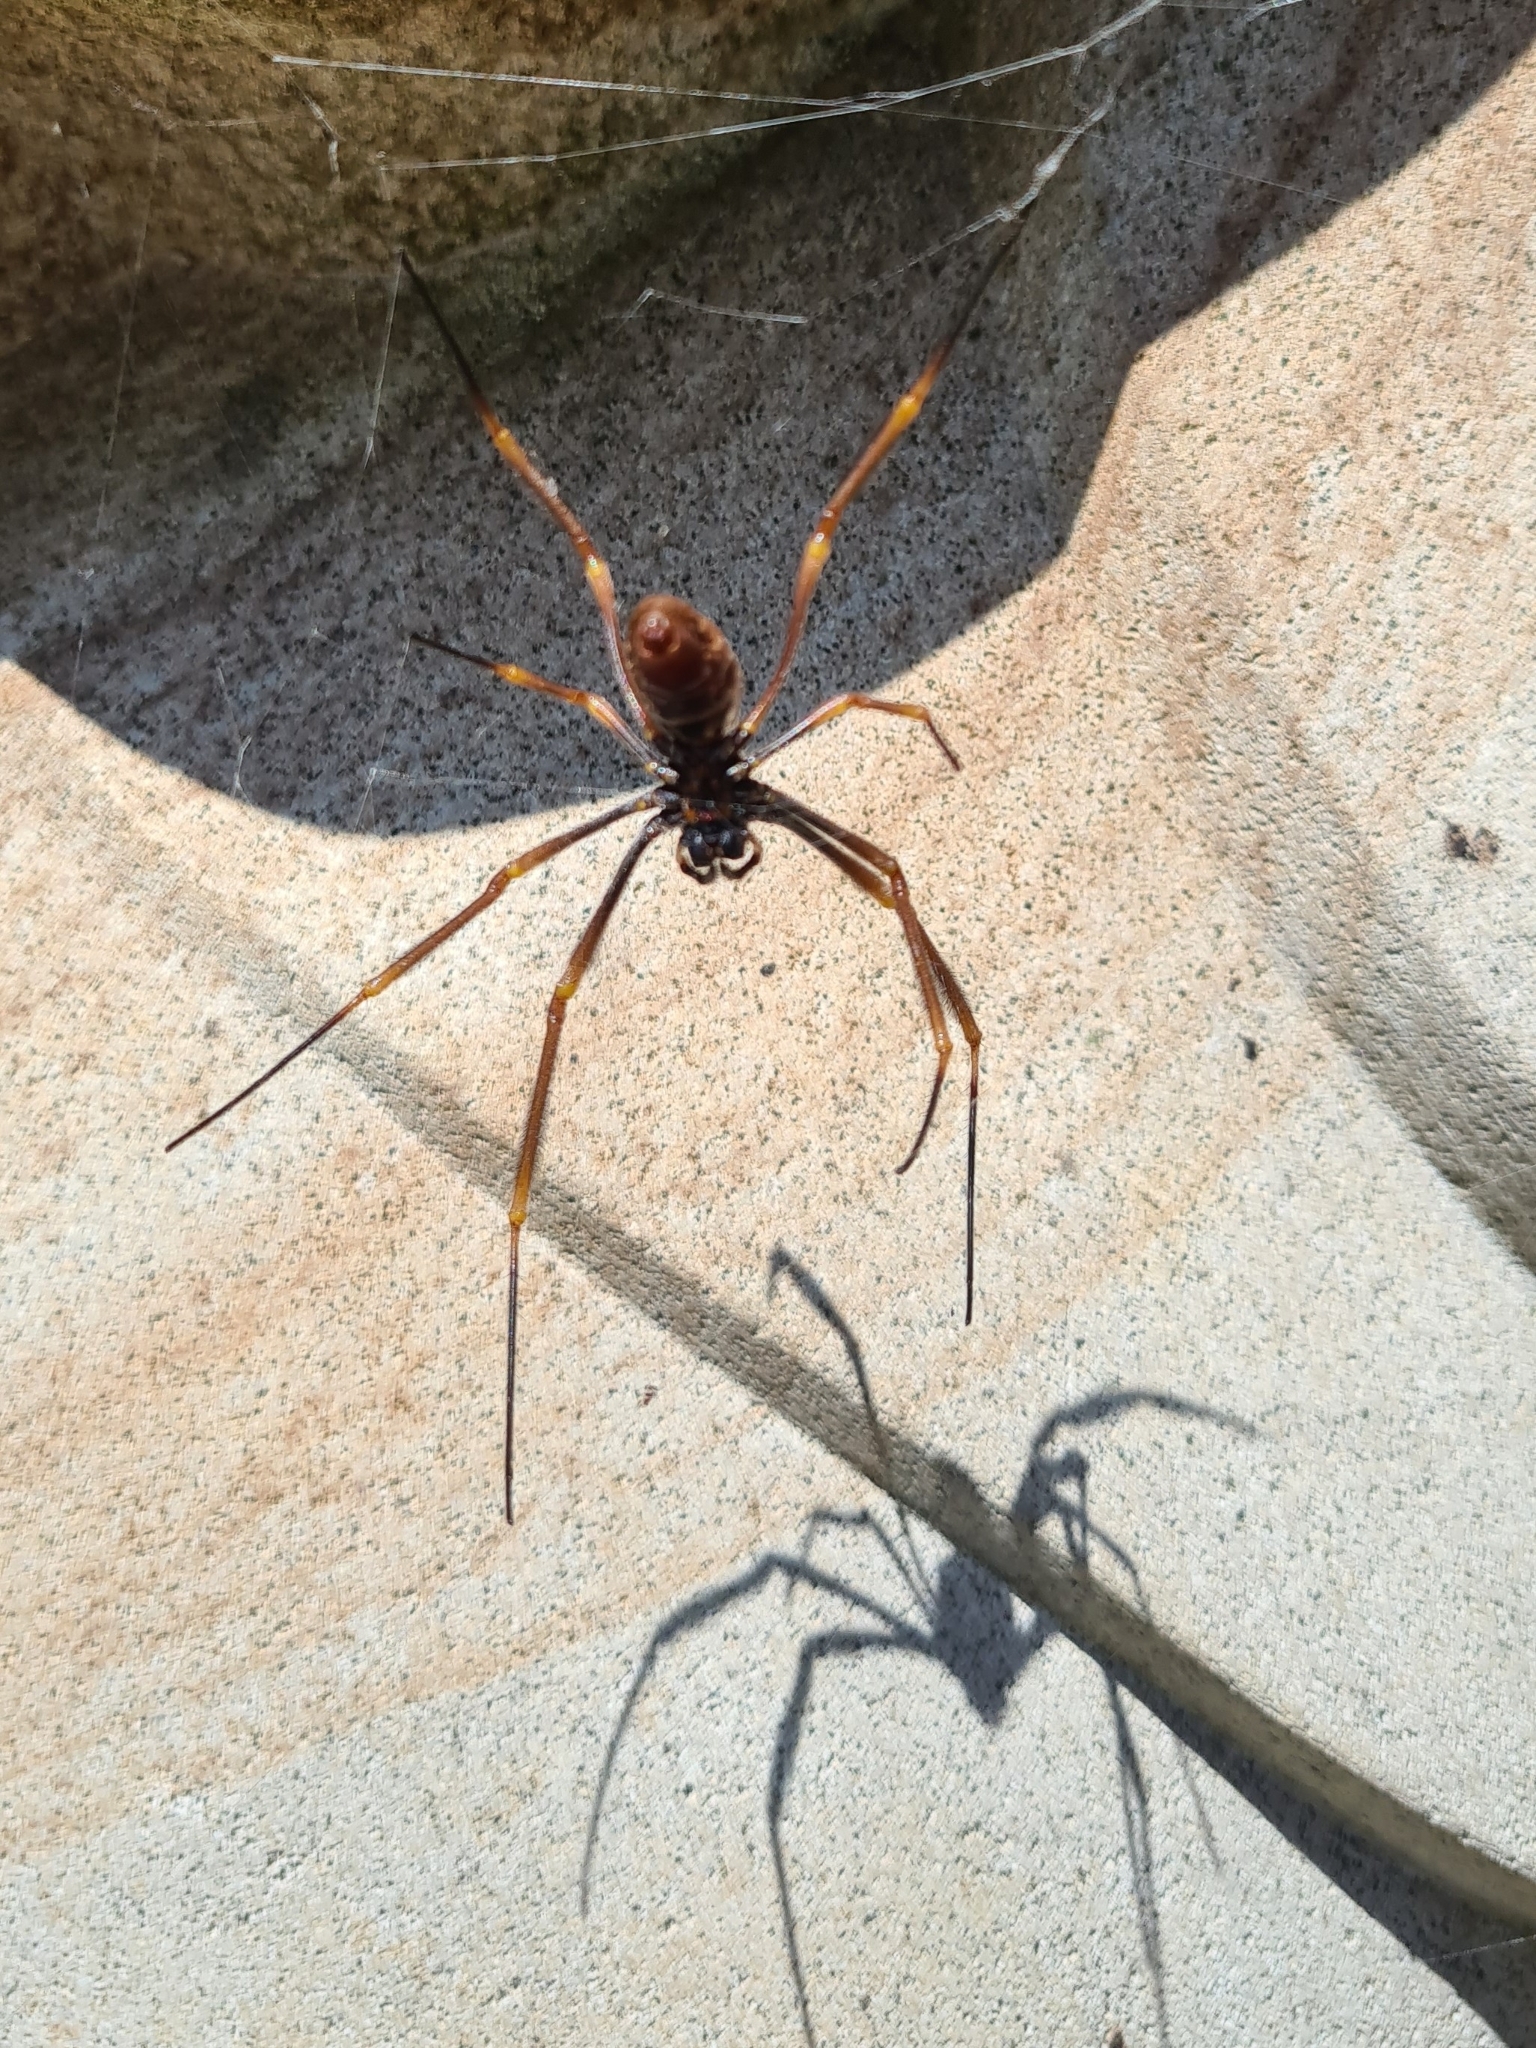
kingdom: Animalia
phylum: Arthropoda
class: Arachnida
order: Araneae
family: Araneidae
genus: Trichonephila
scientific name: Trichonephila plumipes
